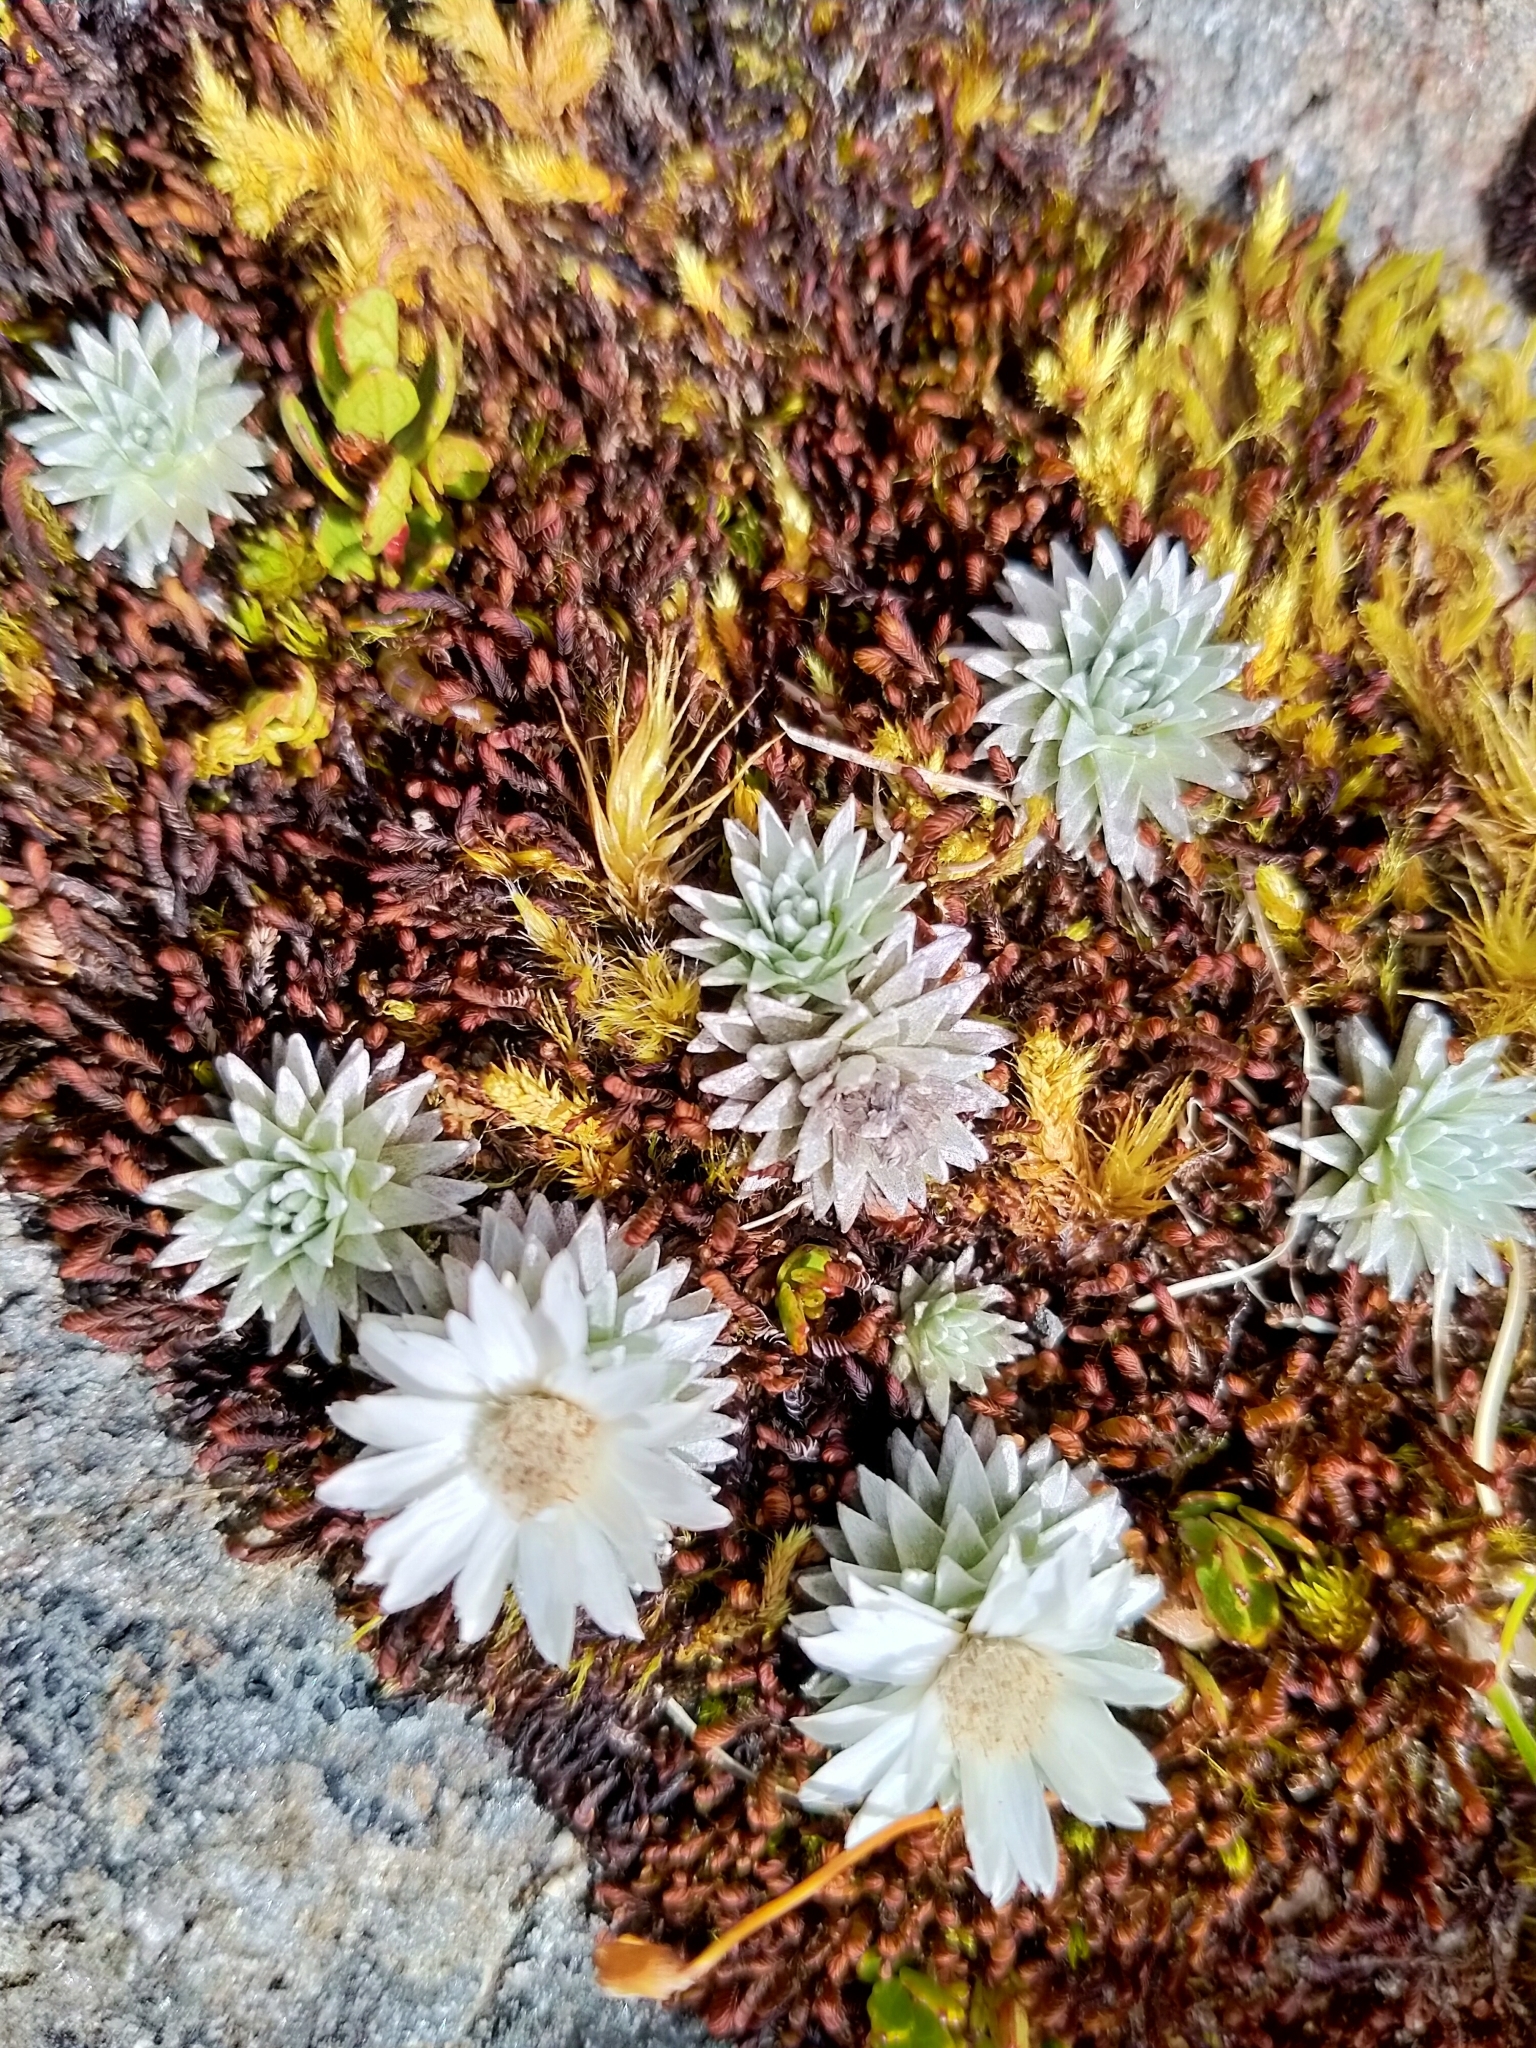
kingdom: Plantae
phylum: Tracheophyta
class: Magnoliopsida
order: Asterales
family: Asteraceae
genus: Raoulia
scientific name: Raoulia grandiflora
